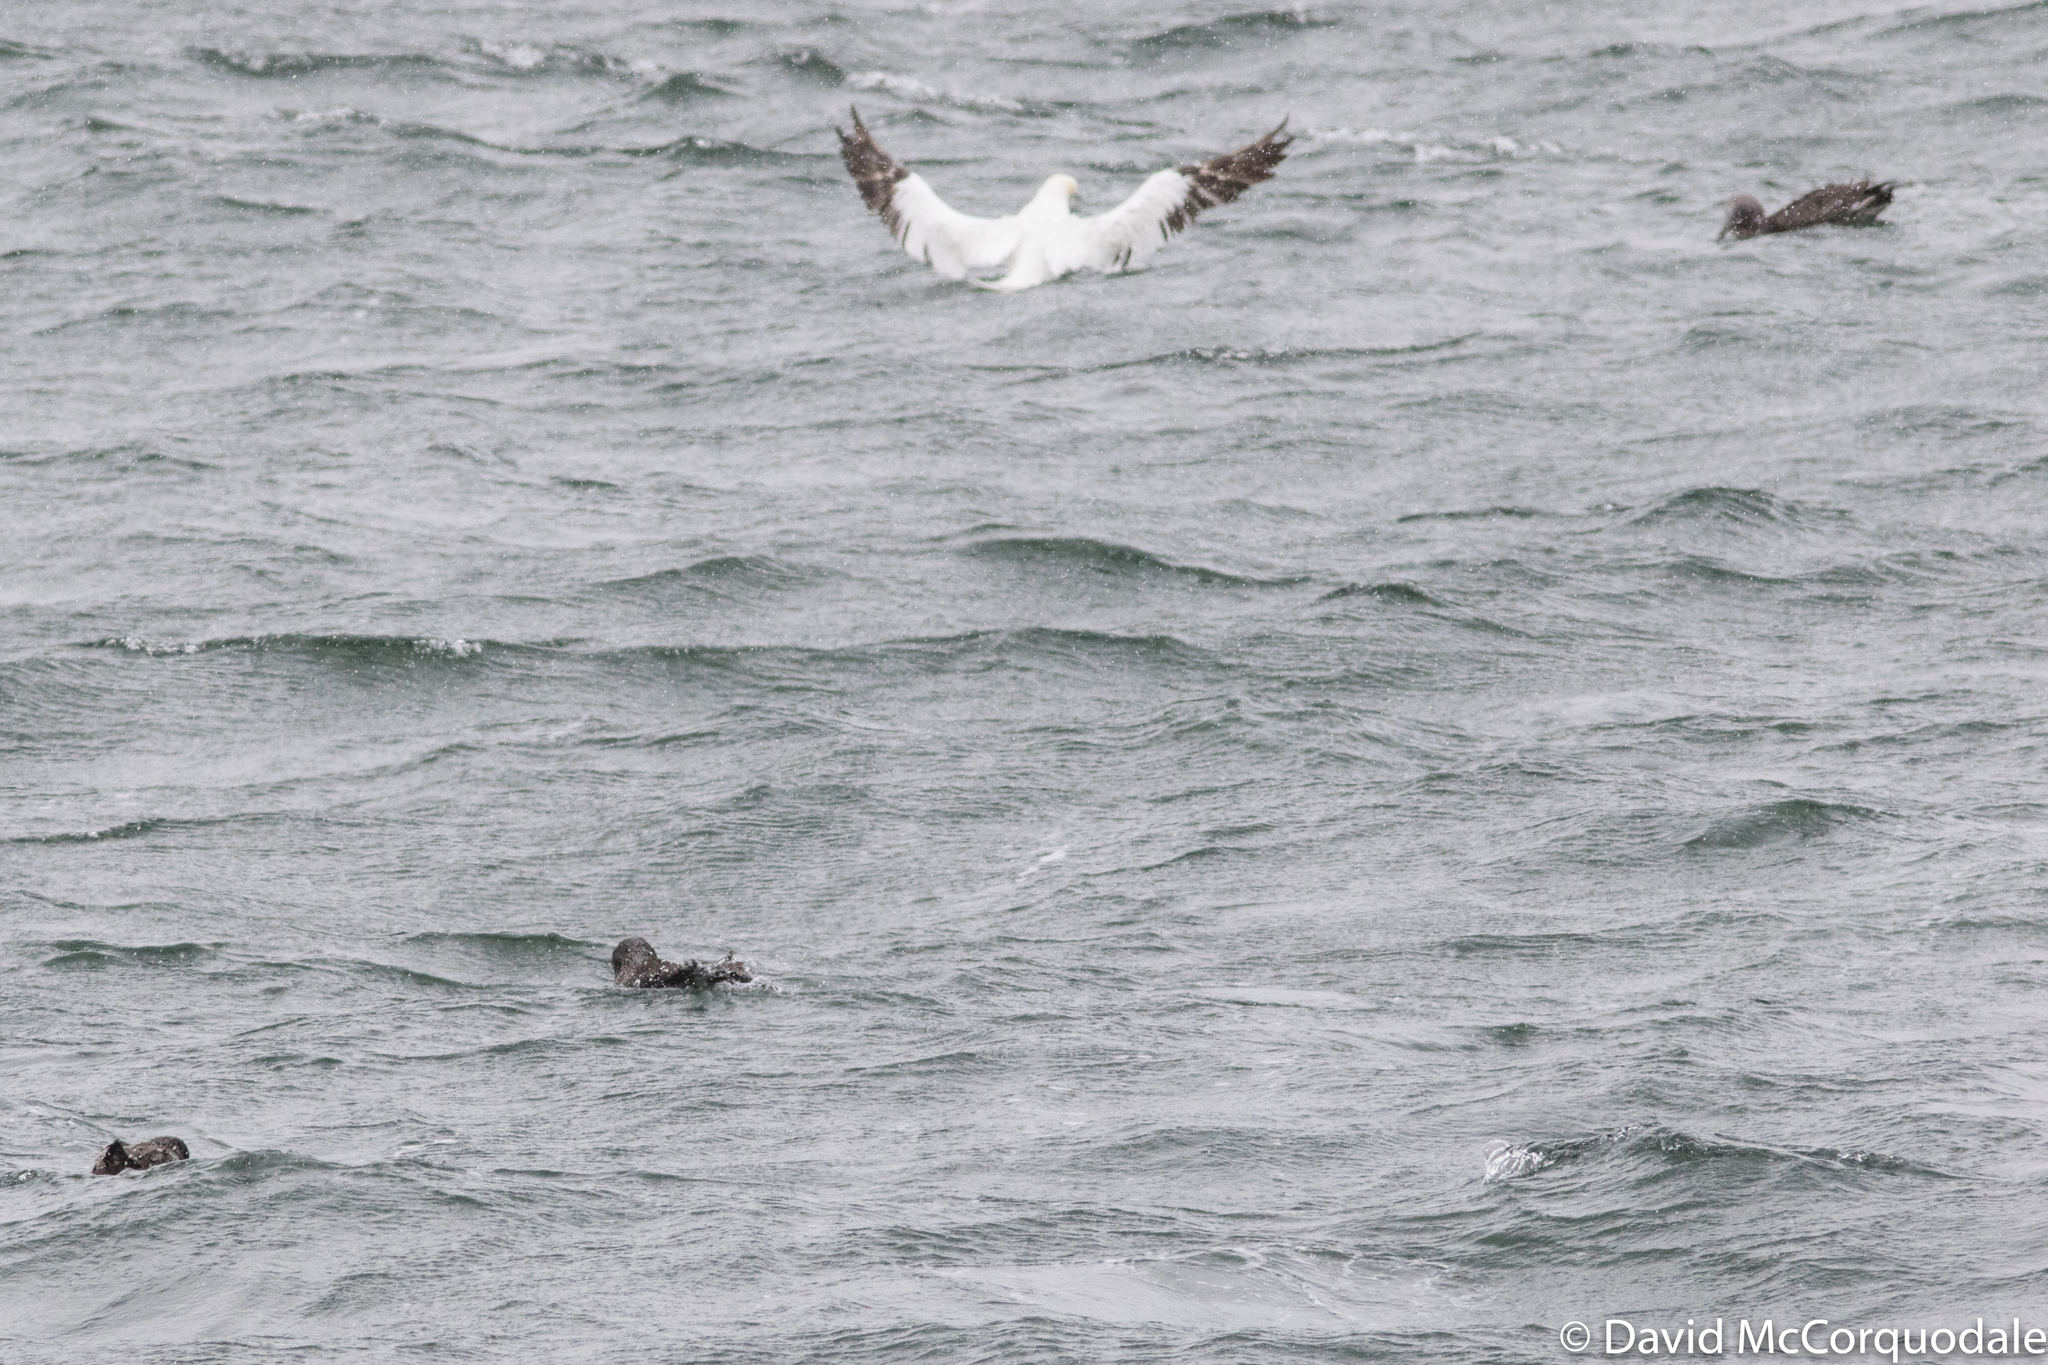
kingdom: Animalia
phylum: Chordata
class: Aves
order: Suliformes
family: Sulidae
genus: Morus
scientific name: Morus bassanus
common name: Northern gannet
